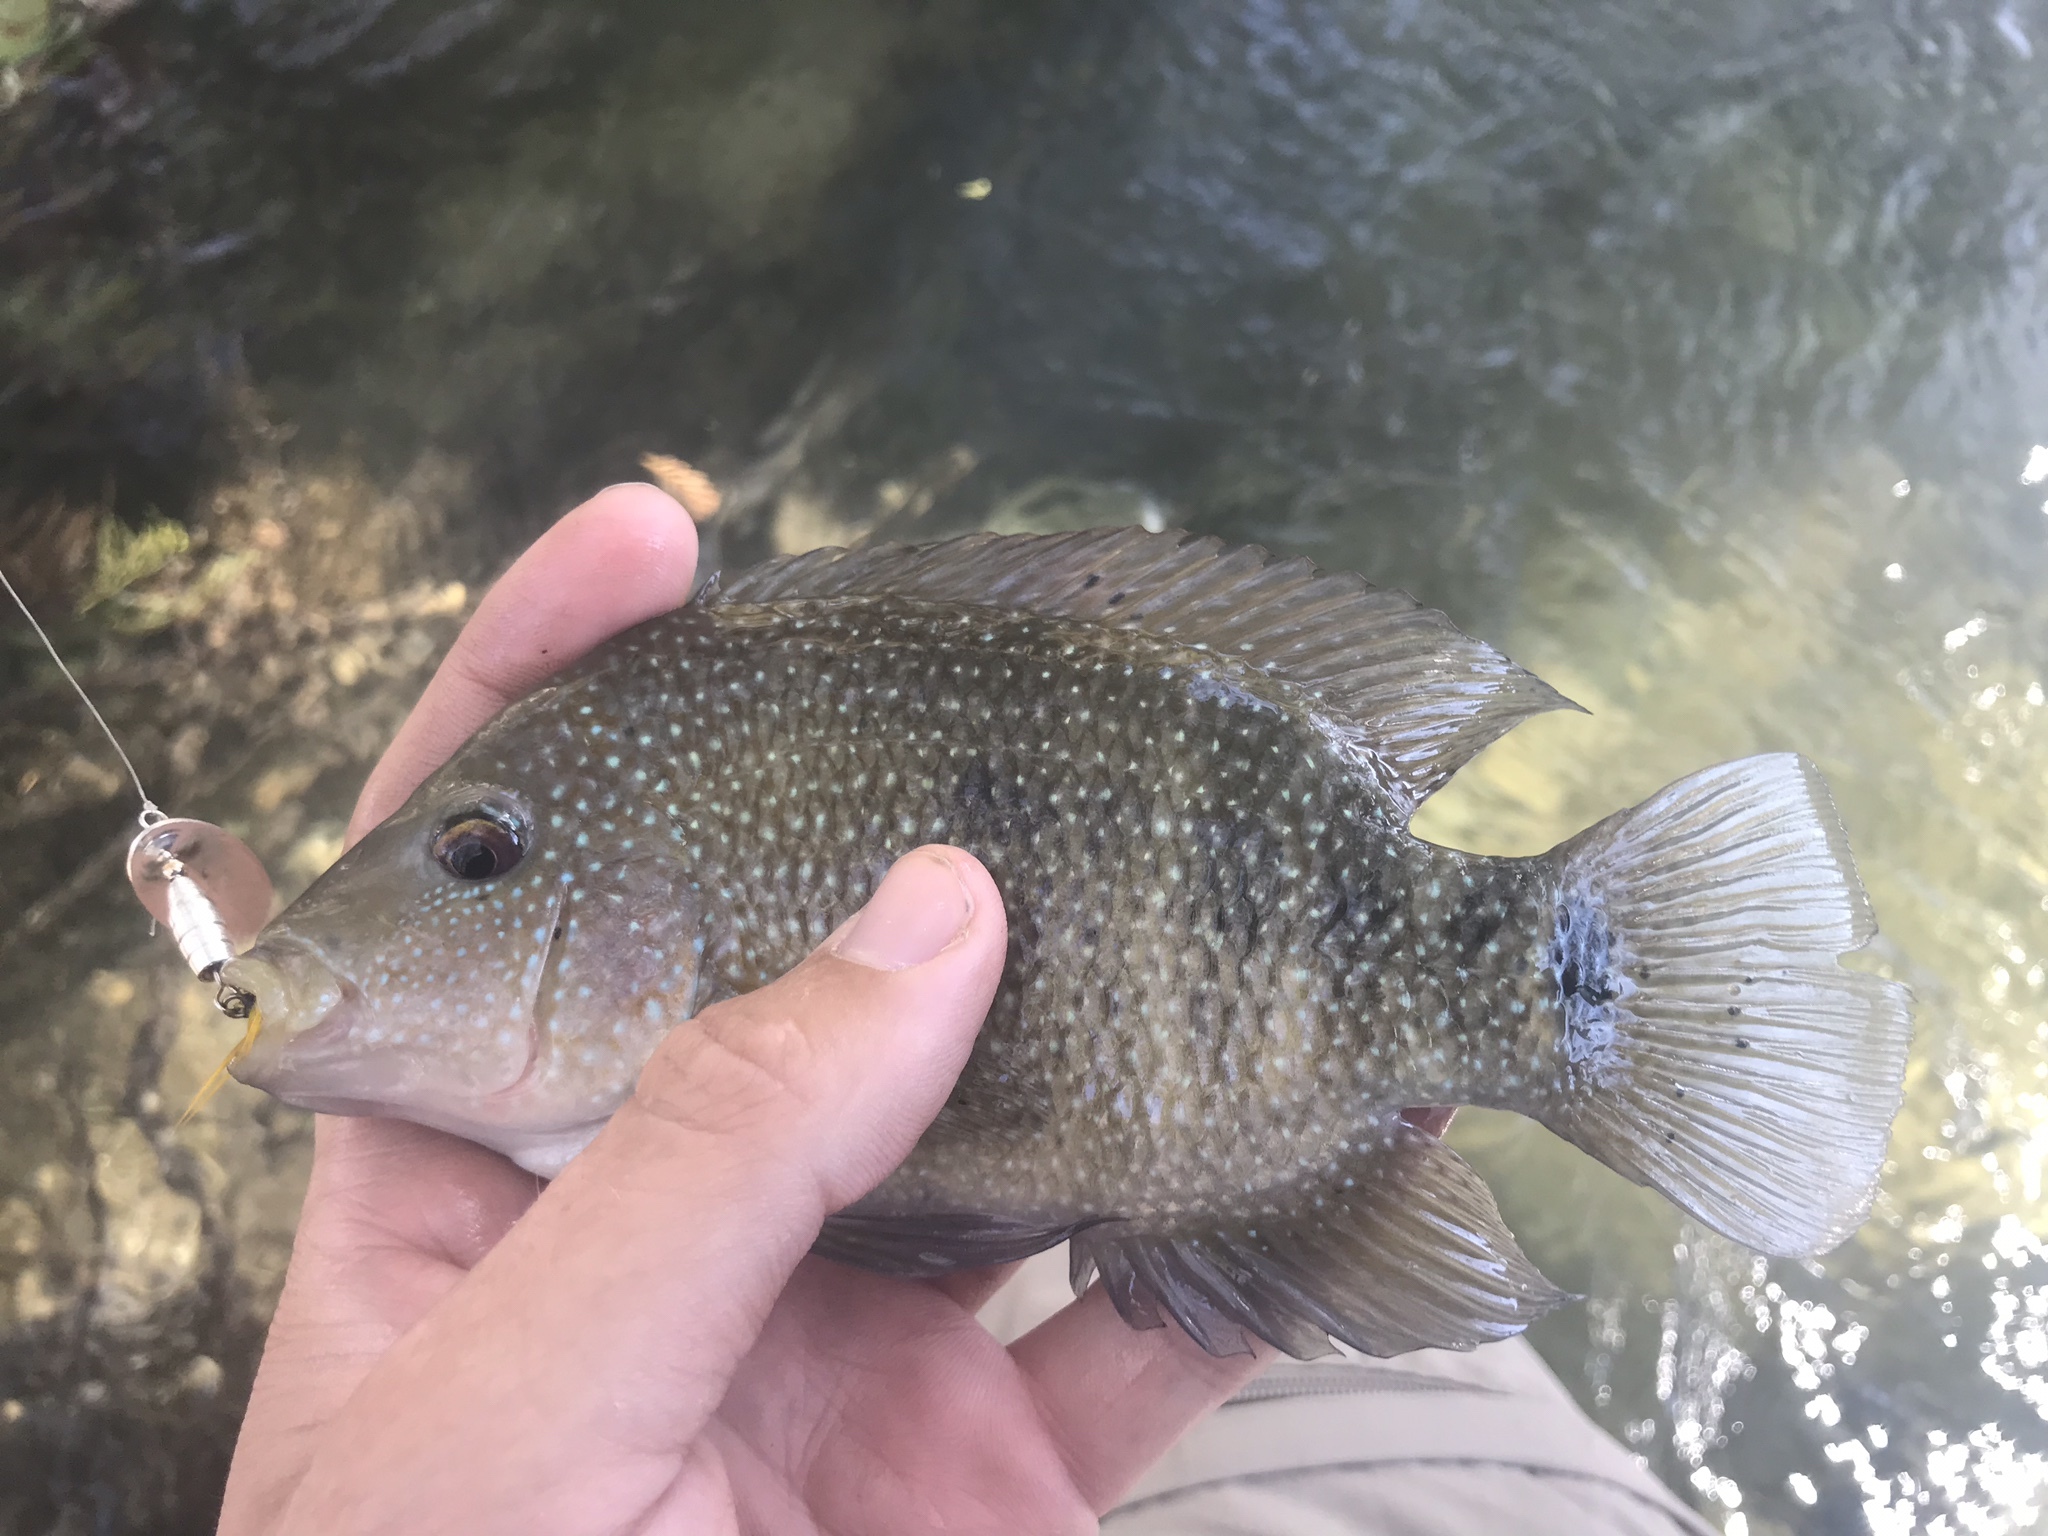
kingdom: Animalia
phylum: Chordata
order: Perciformes
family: Cichlidae
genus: Herichthys
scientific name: Herichthys cyanoguttatus
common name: Rio grande cichlid
